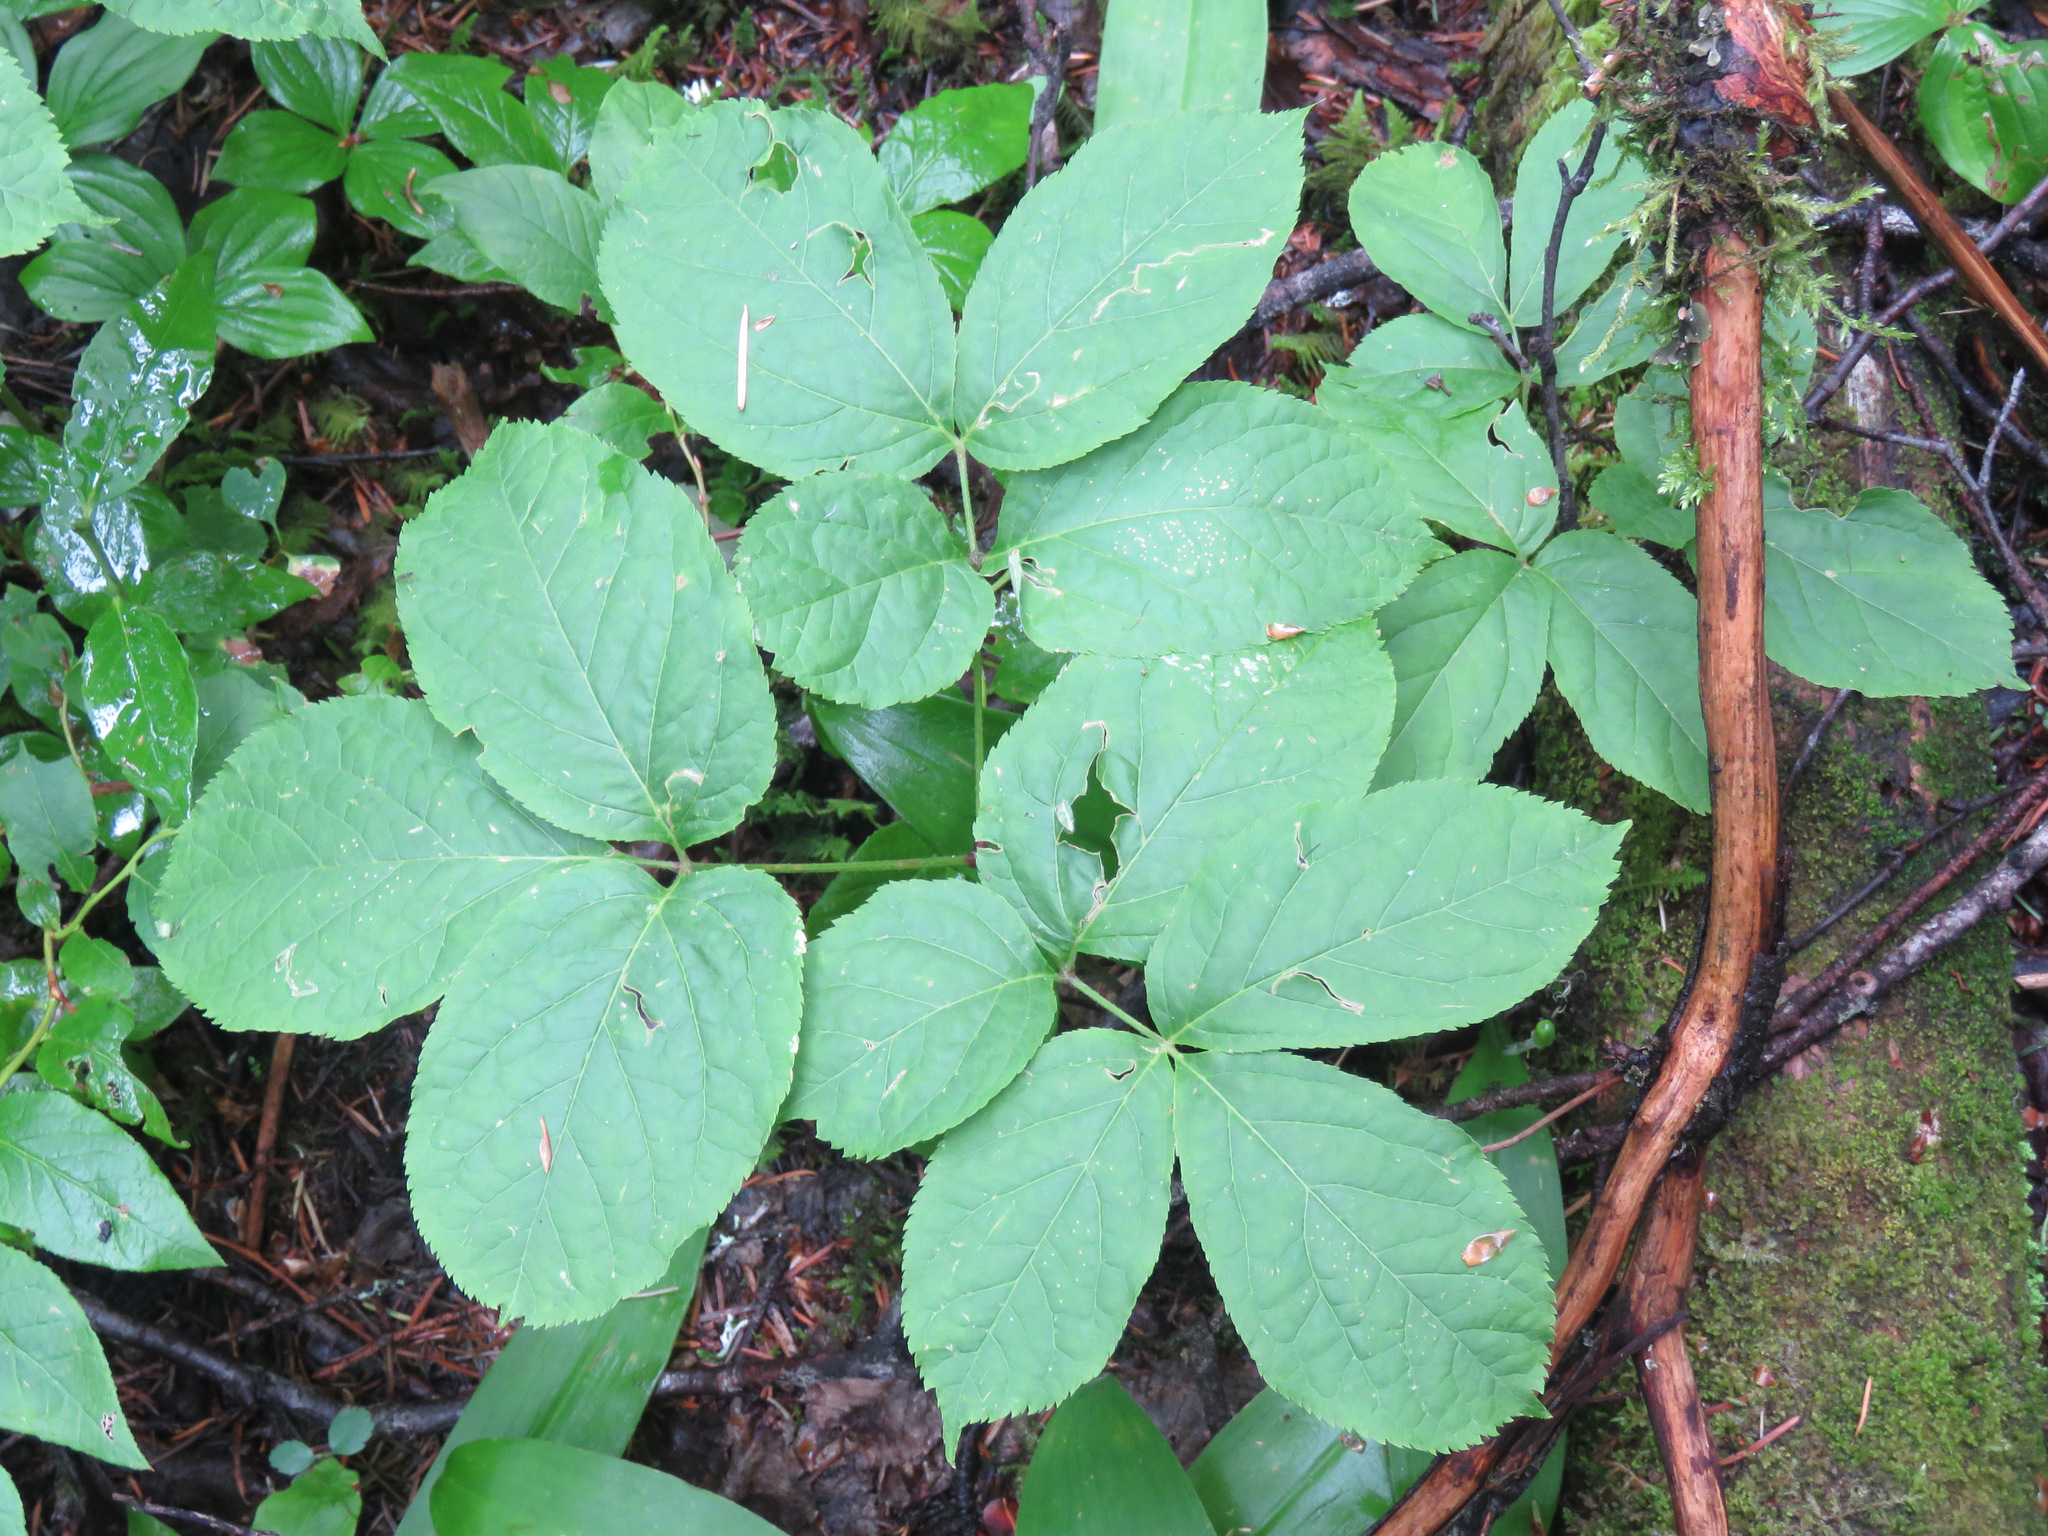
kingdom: Plantae
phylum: Tracheophyta
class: Magnoliopsida
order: Apiales
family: Araliaceae
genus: Aralia
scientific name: Aralia nudicaulis
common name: Wild sarsaparilla
